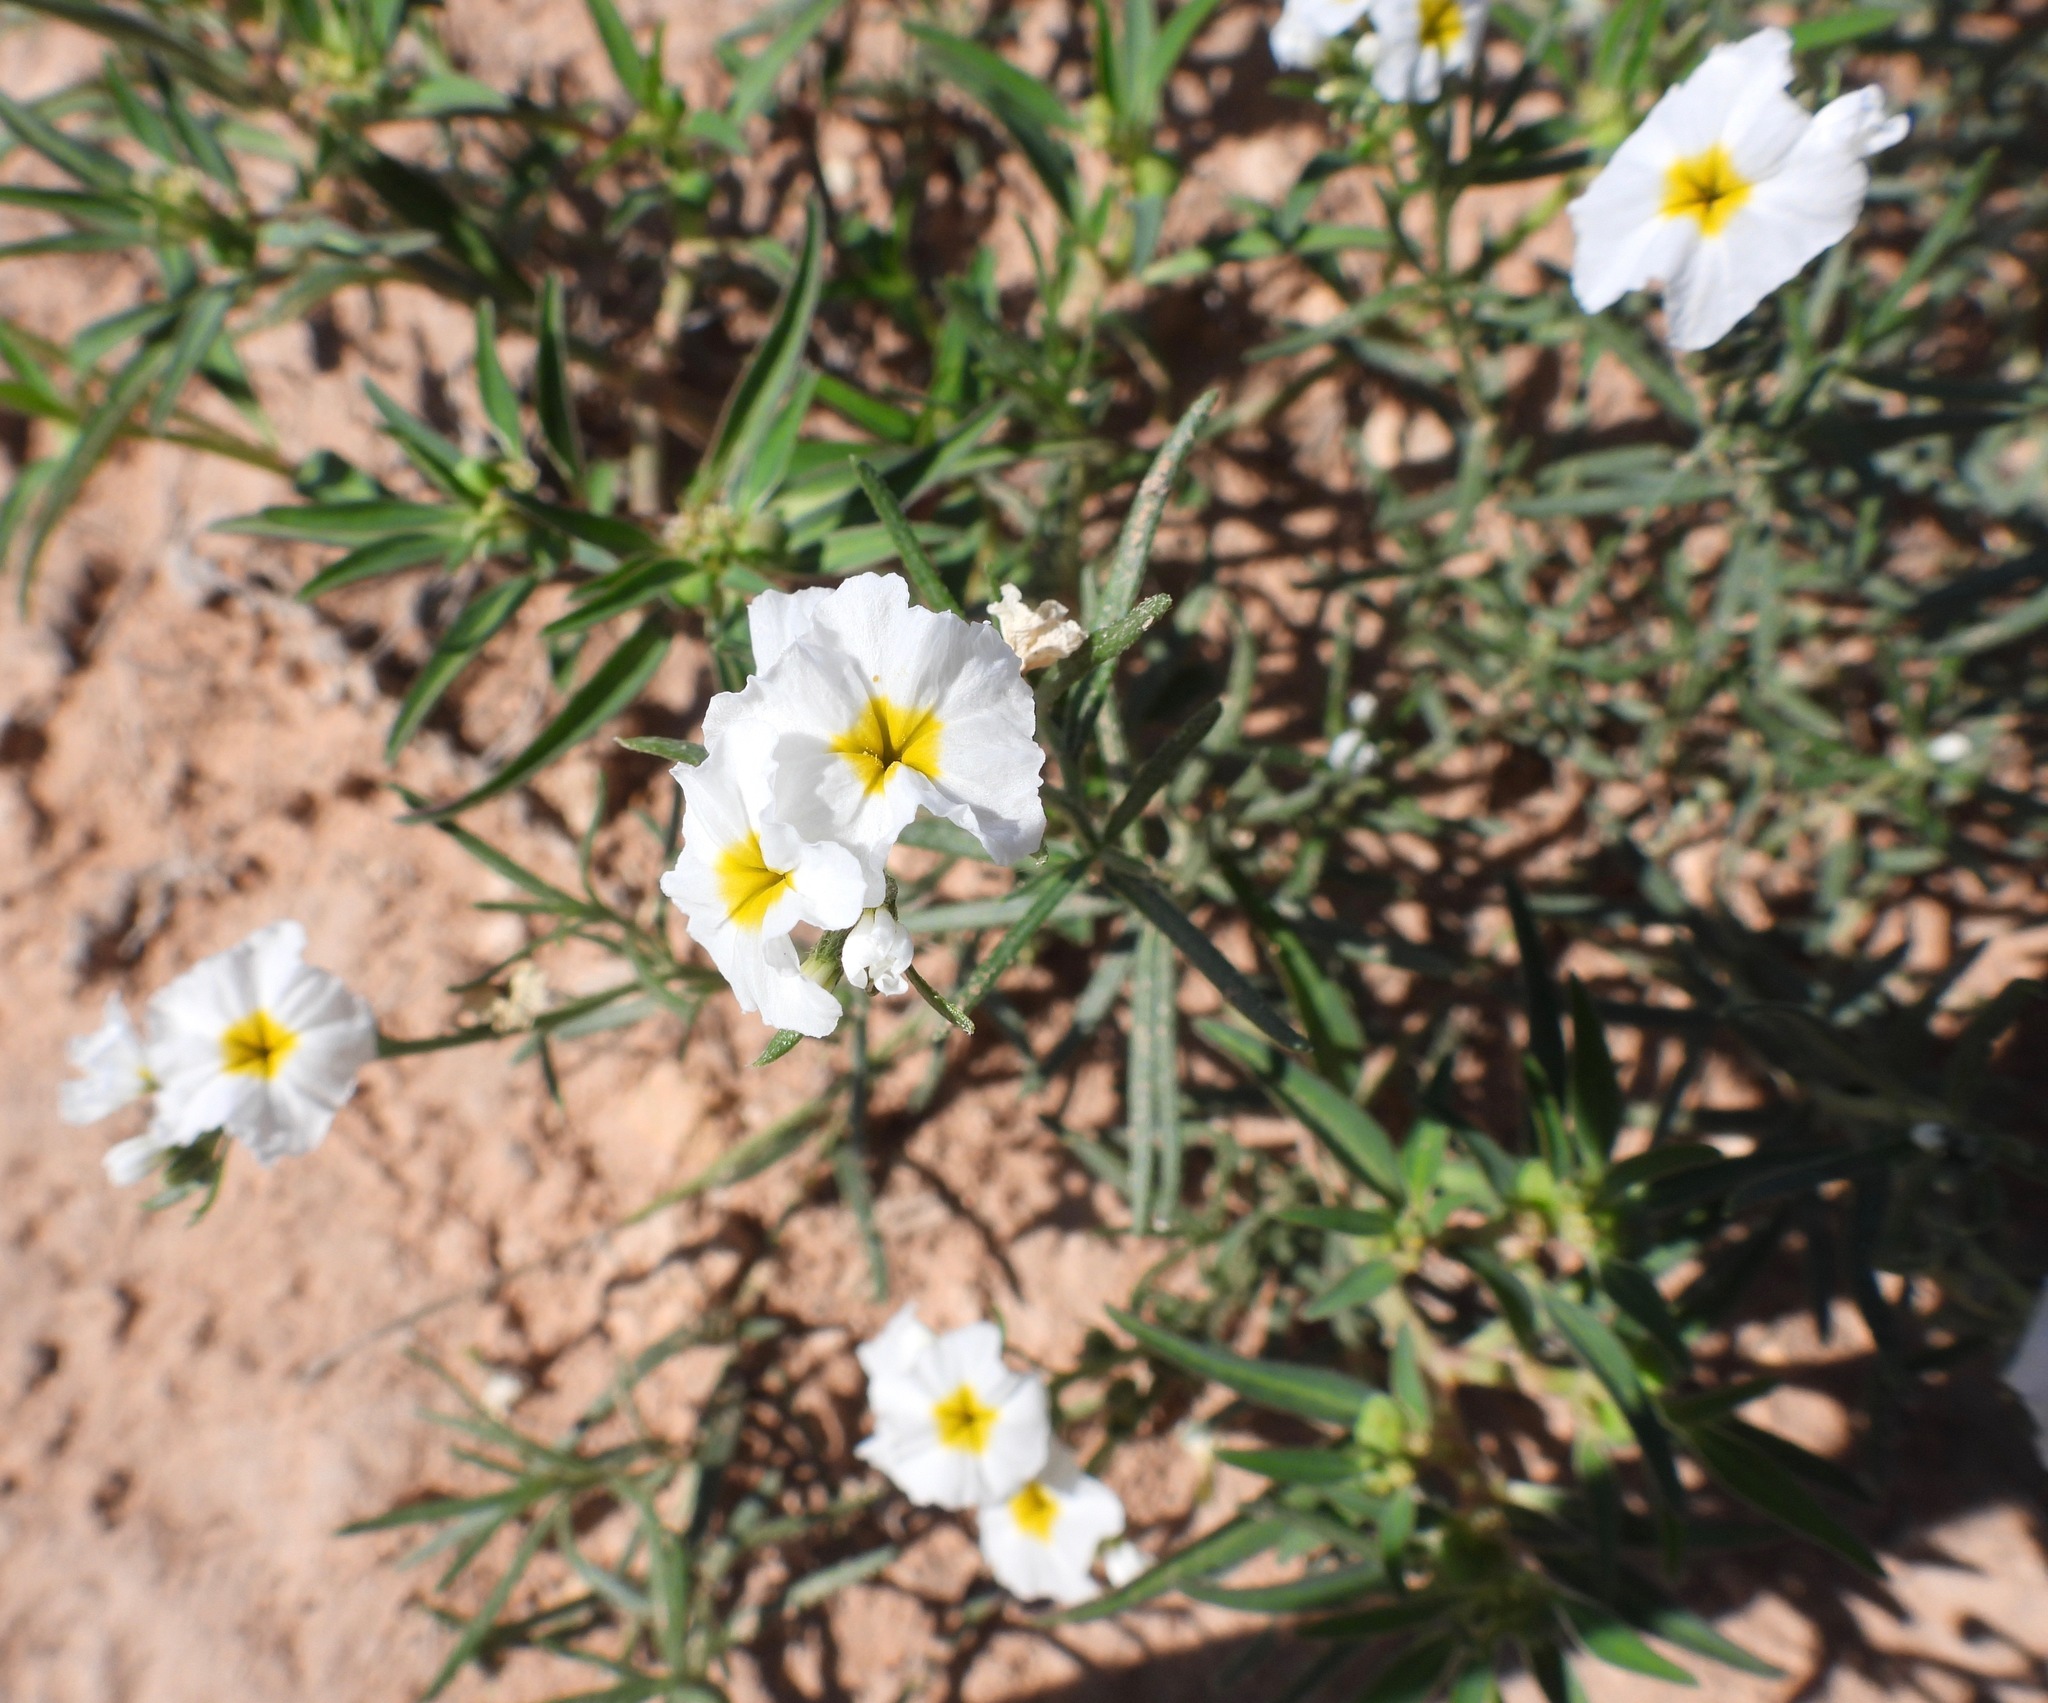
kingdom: Plantae
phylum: Tracheophyta
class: Magnoliopsida
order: Boraginales
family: Heliotropiaceae
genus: Euploca
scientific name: Euploca greggii
